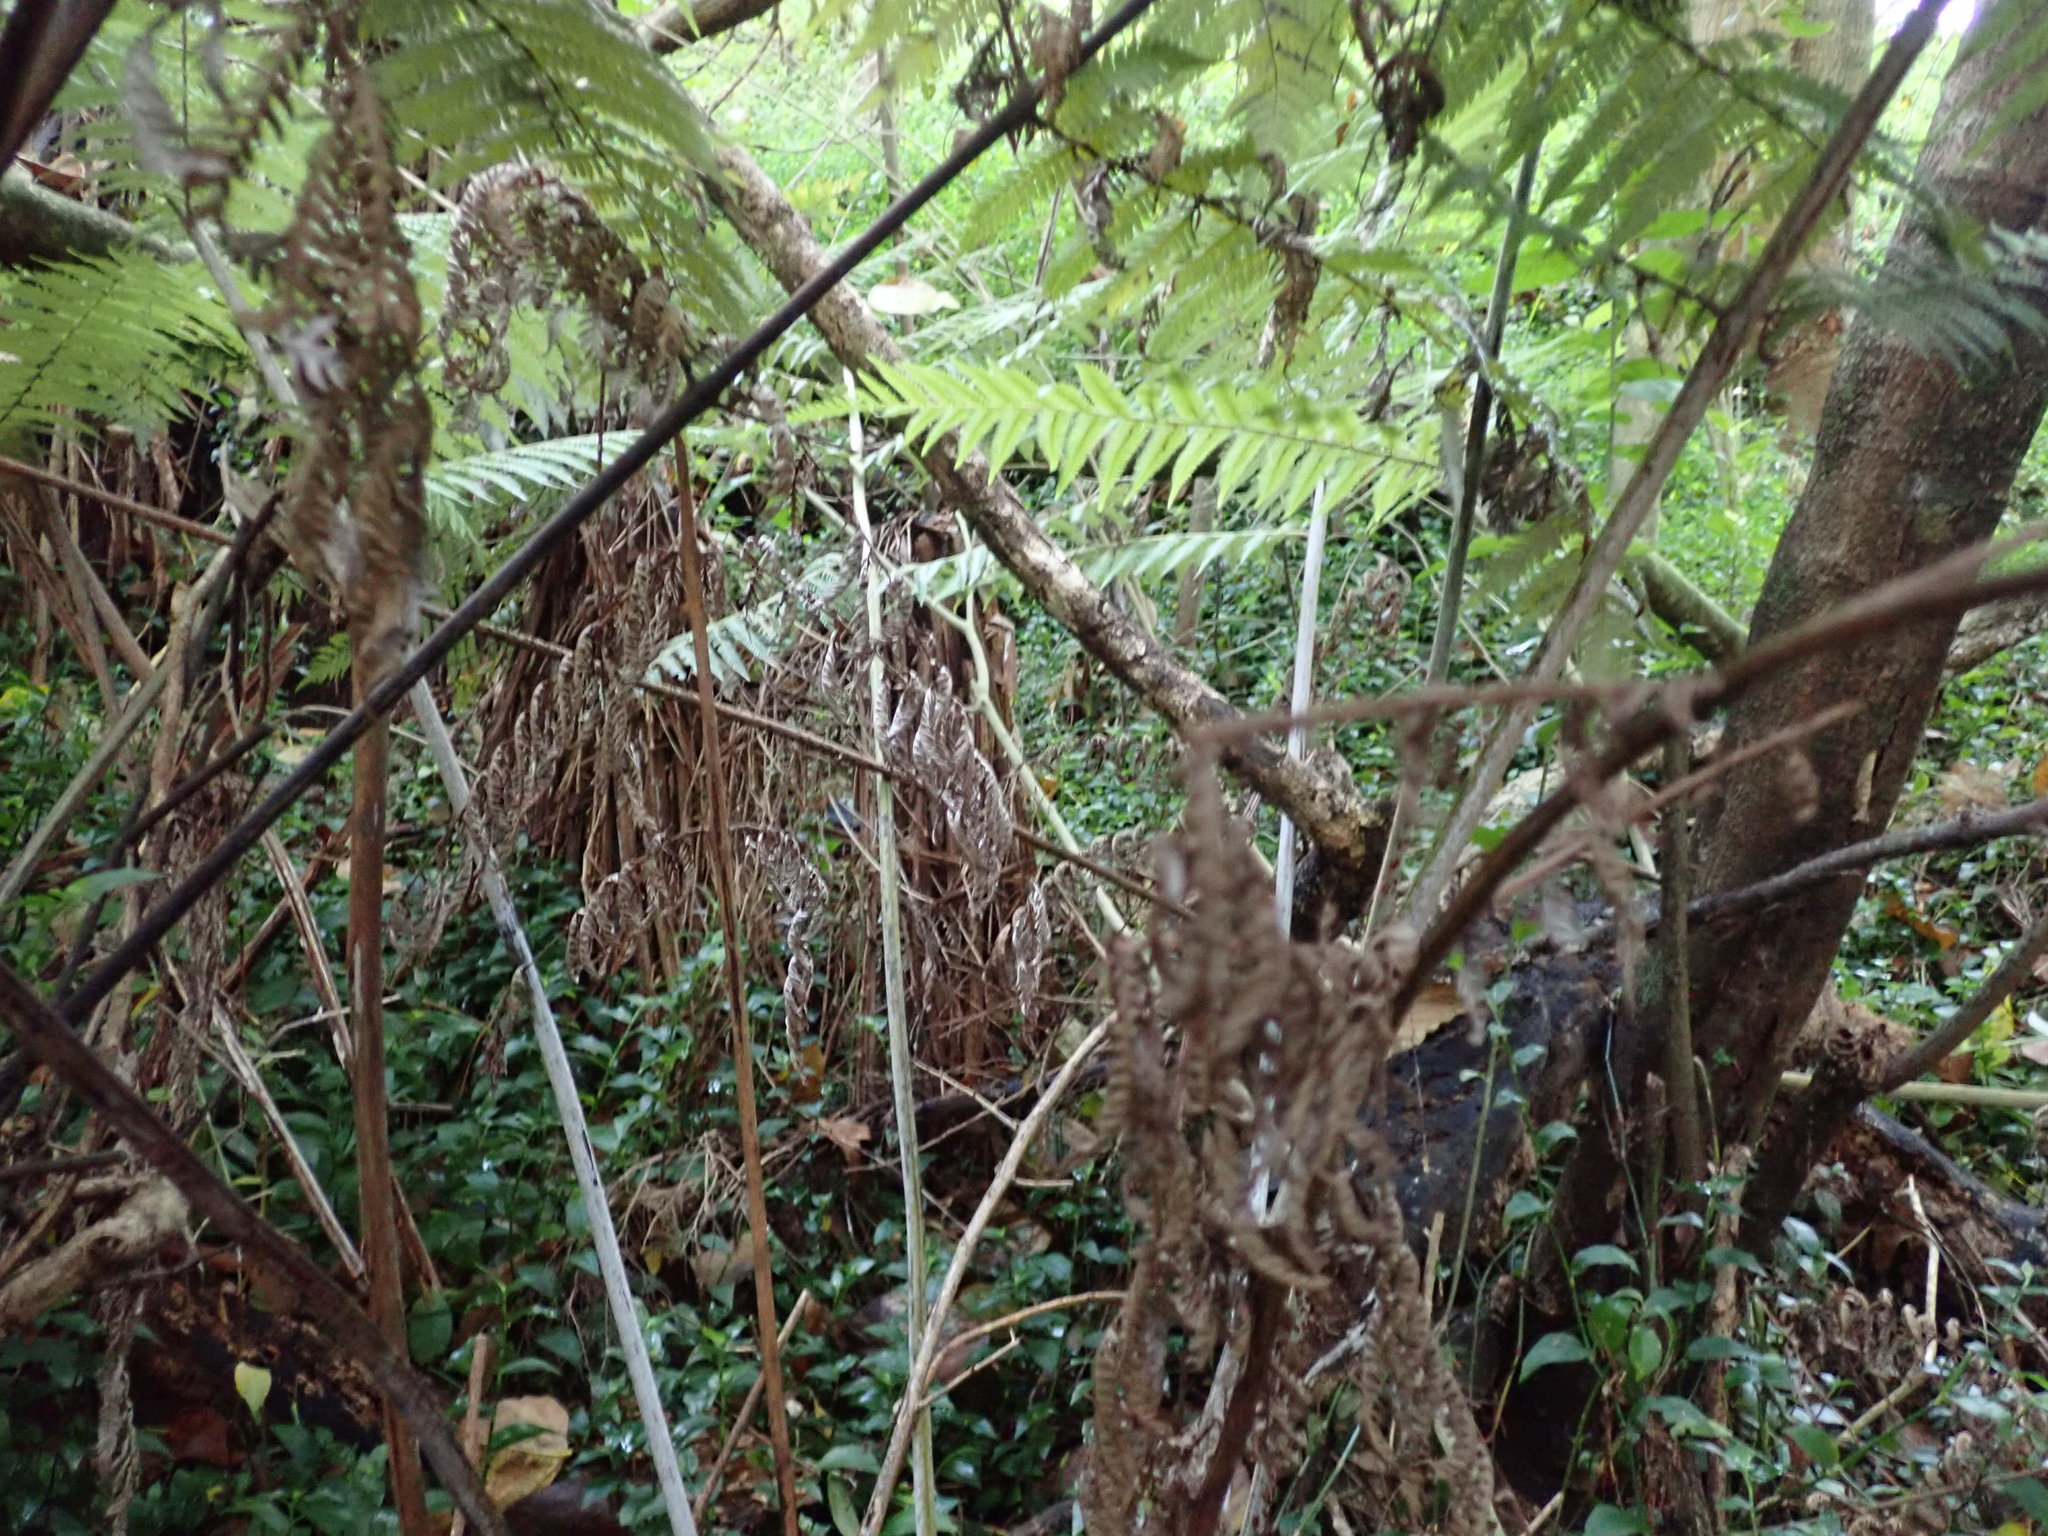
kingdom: Plantae
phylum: Tracheophyta
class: Polypodiopsida
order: Cyatheales
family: Cyatheaceae
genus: Alsophila
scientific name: Alsophila dealbata
